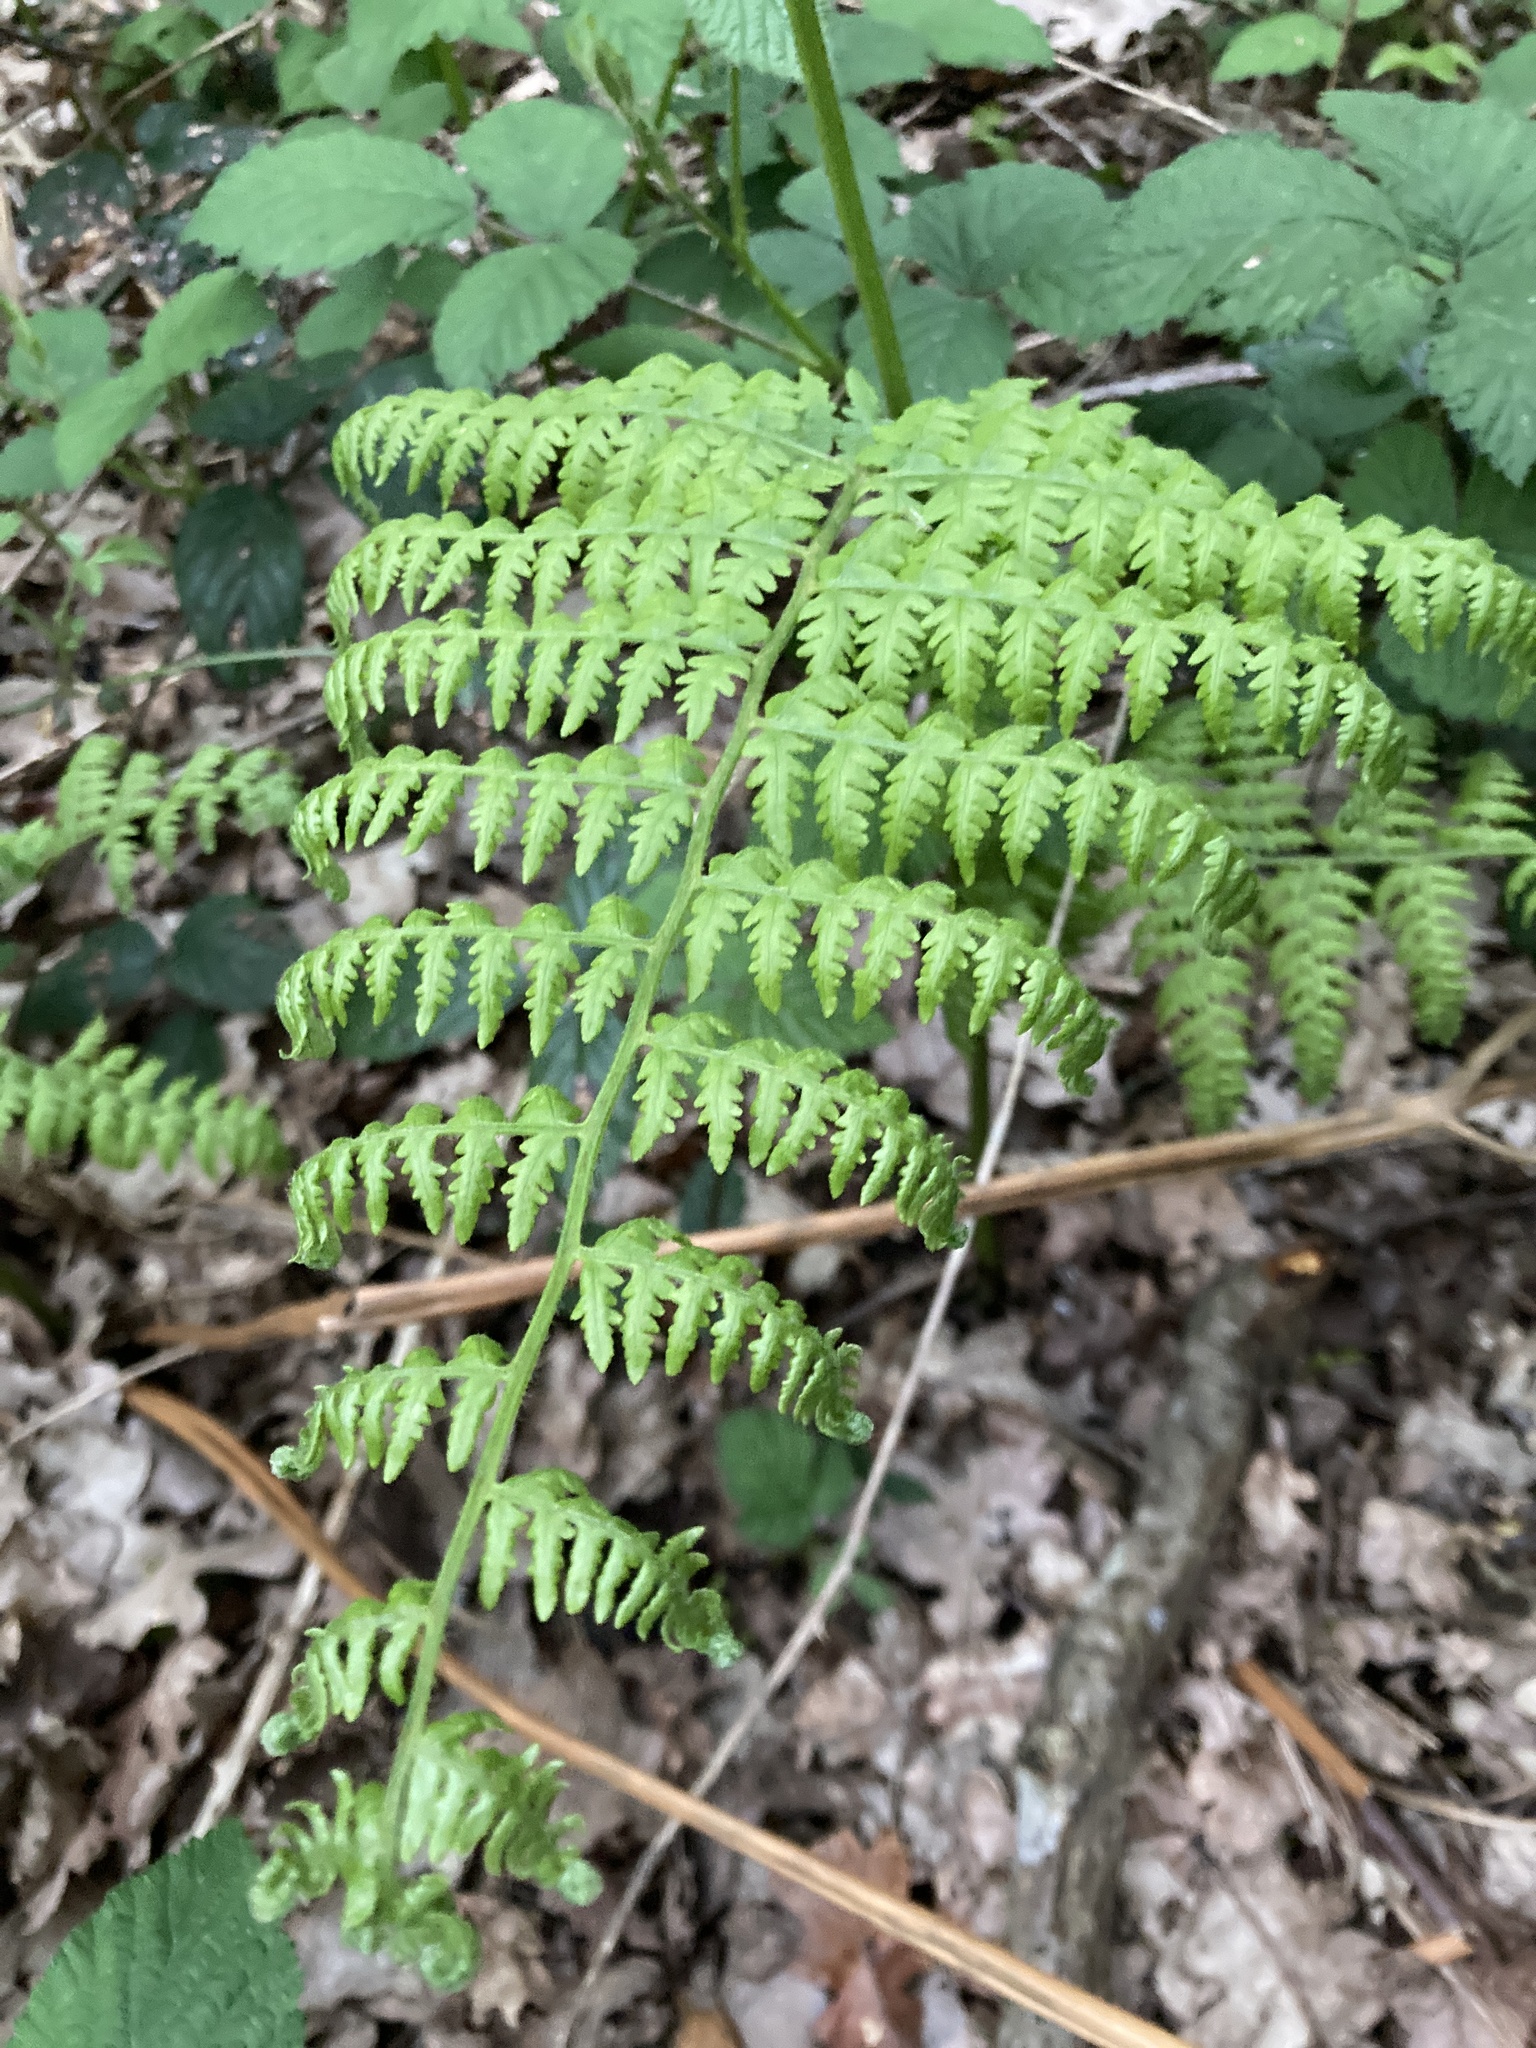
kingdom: Plantae
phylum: Tracheophyta
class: Polypodiopsida
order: Polypodiales
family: Dennstaedtiaceae
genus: Pteridium
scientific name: Pteridium aquilinum
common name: Bracken
